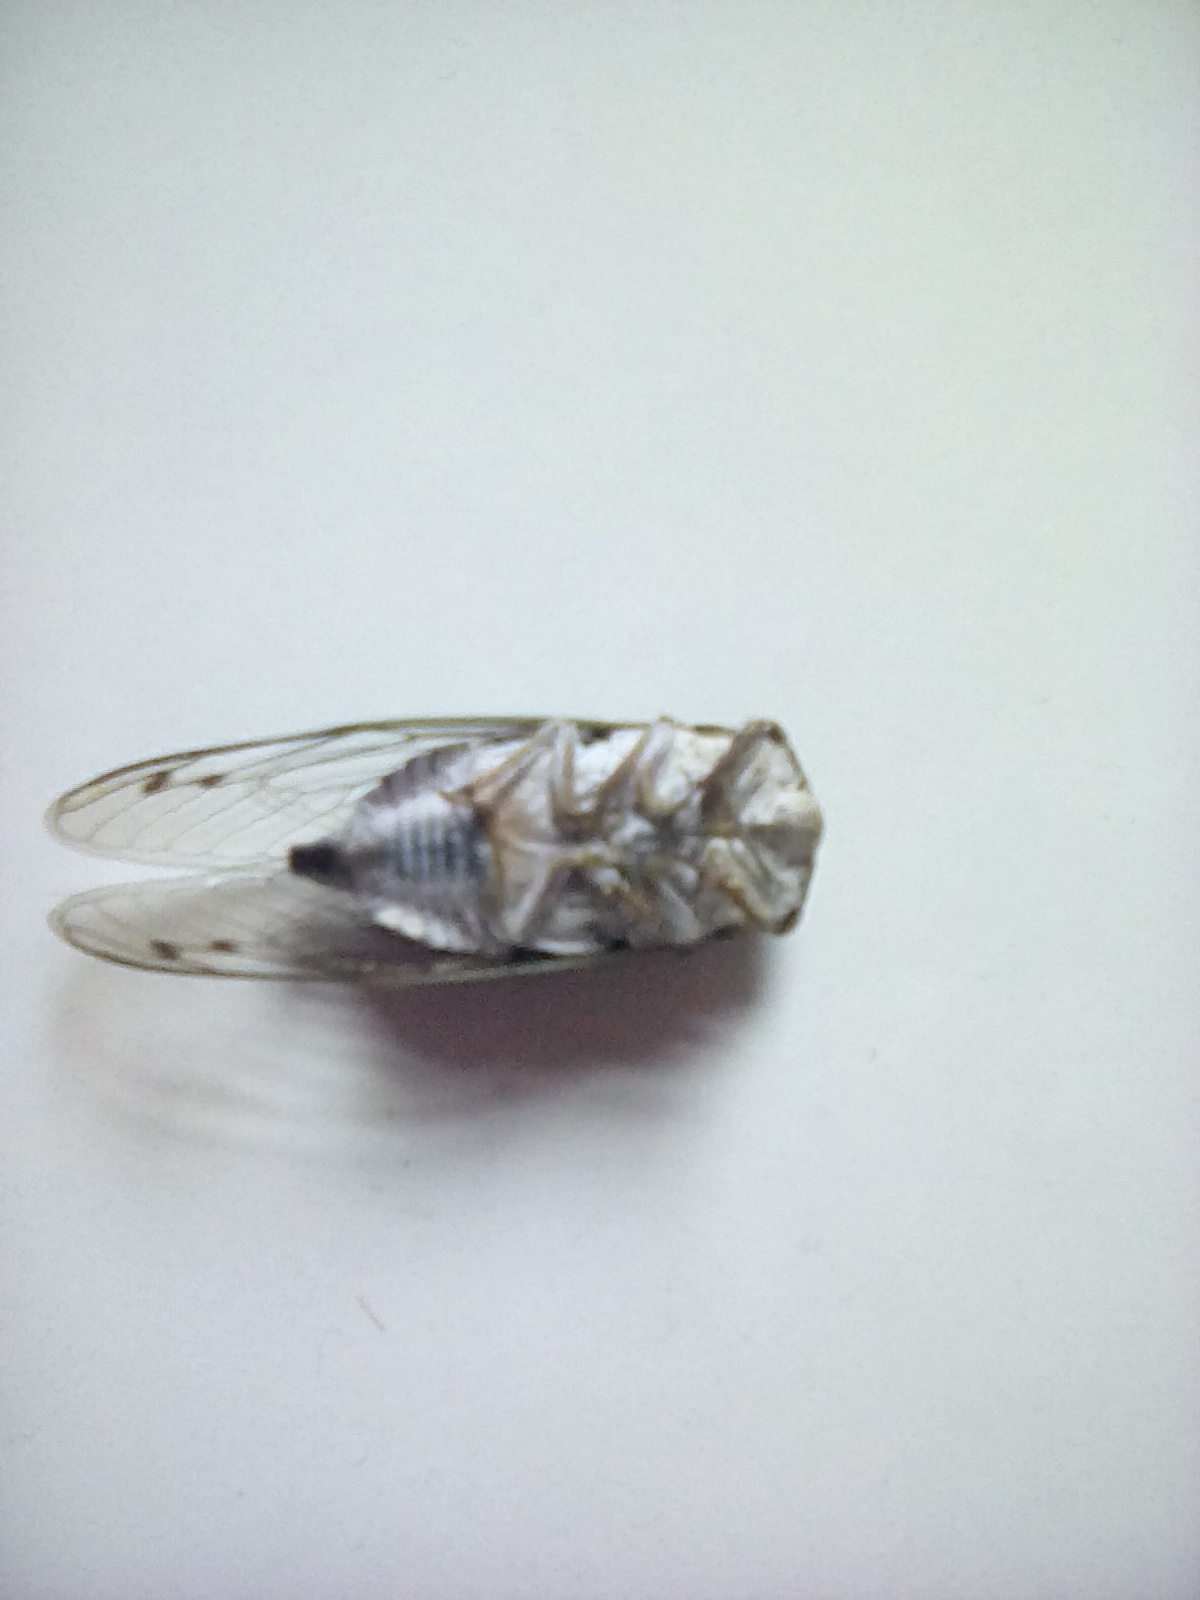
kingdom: Animalia
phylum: Arthropoda
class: Insecta
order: Hemiptera
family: Cicadidae
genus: Neotibicen
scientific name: Neotibicen pruinosus
